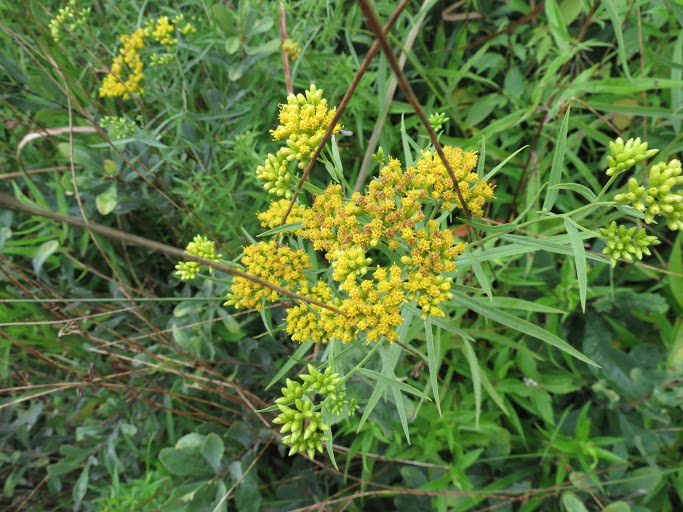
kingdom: Plantae
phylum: Tracheophyta
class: Magnoliopsida
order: Asterales
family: Asteraceae
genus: Euthamia
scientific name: Euthamia graminifolia
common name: Common goldentop
